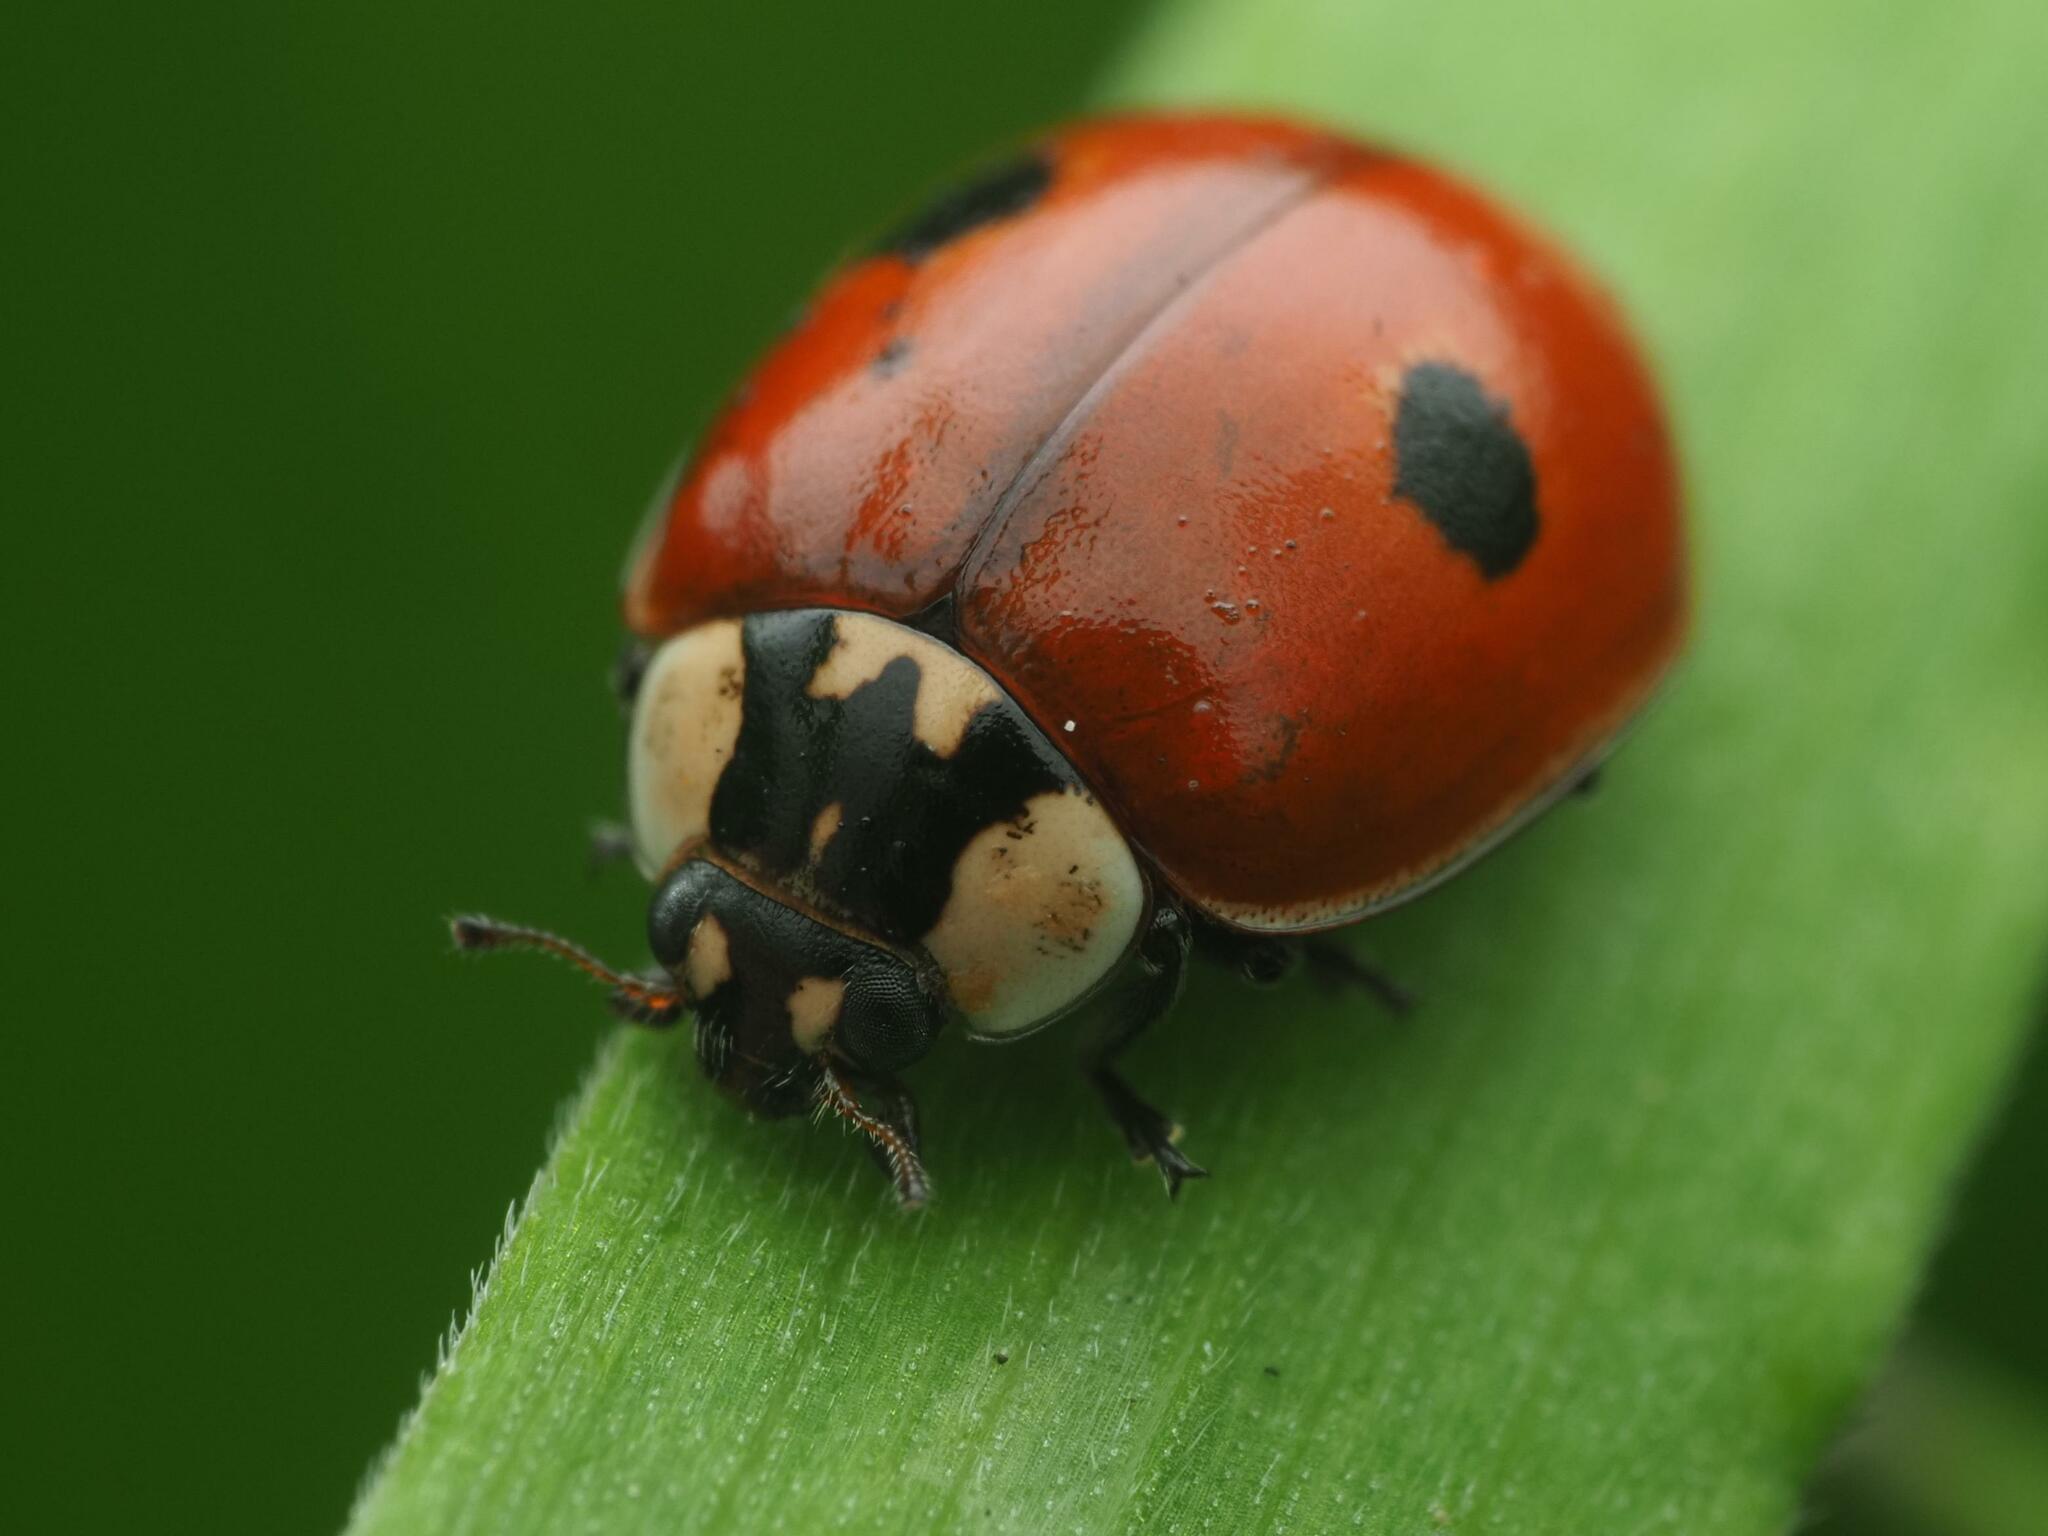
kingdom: Animalia
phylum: Arthropoda
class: Insecta
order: Coleoptera
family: Coccinellidae
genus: Adalia
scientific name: Adalia bipunctata
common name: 2-spot ladybird
